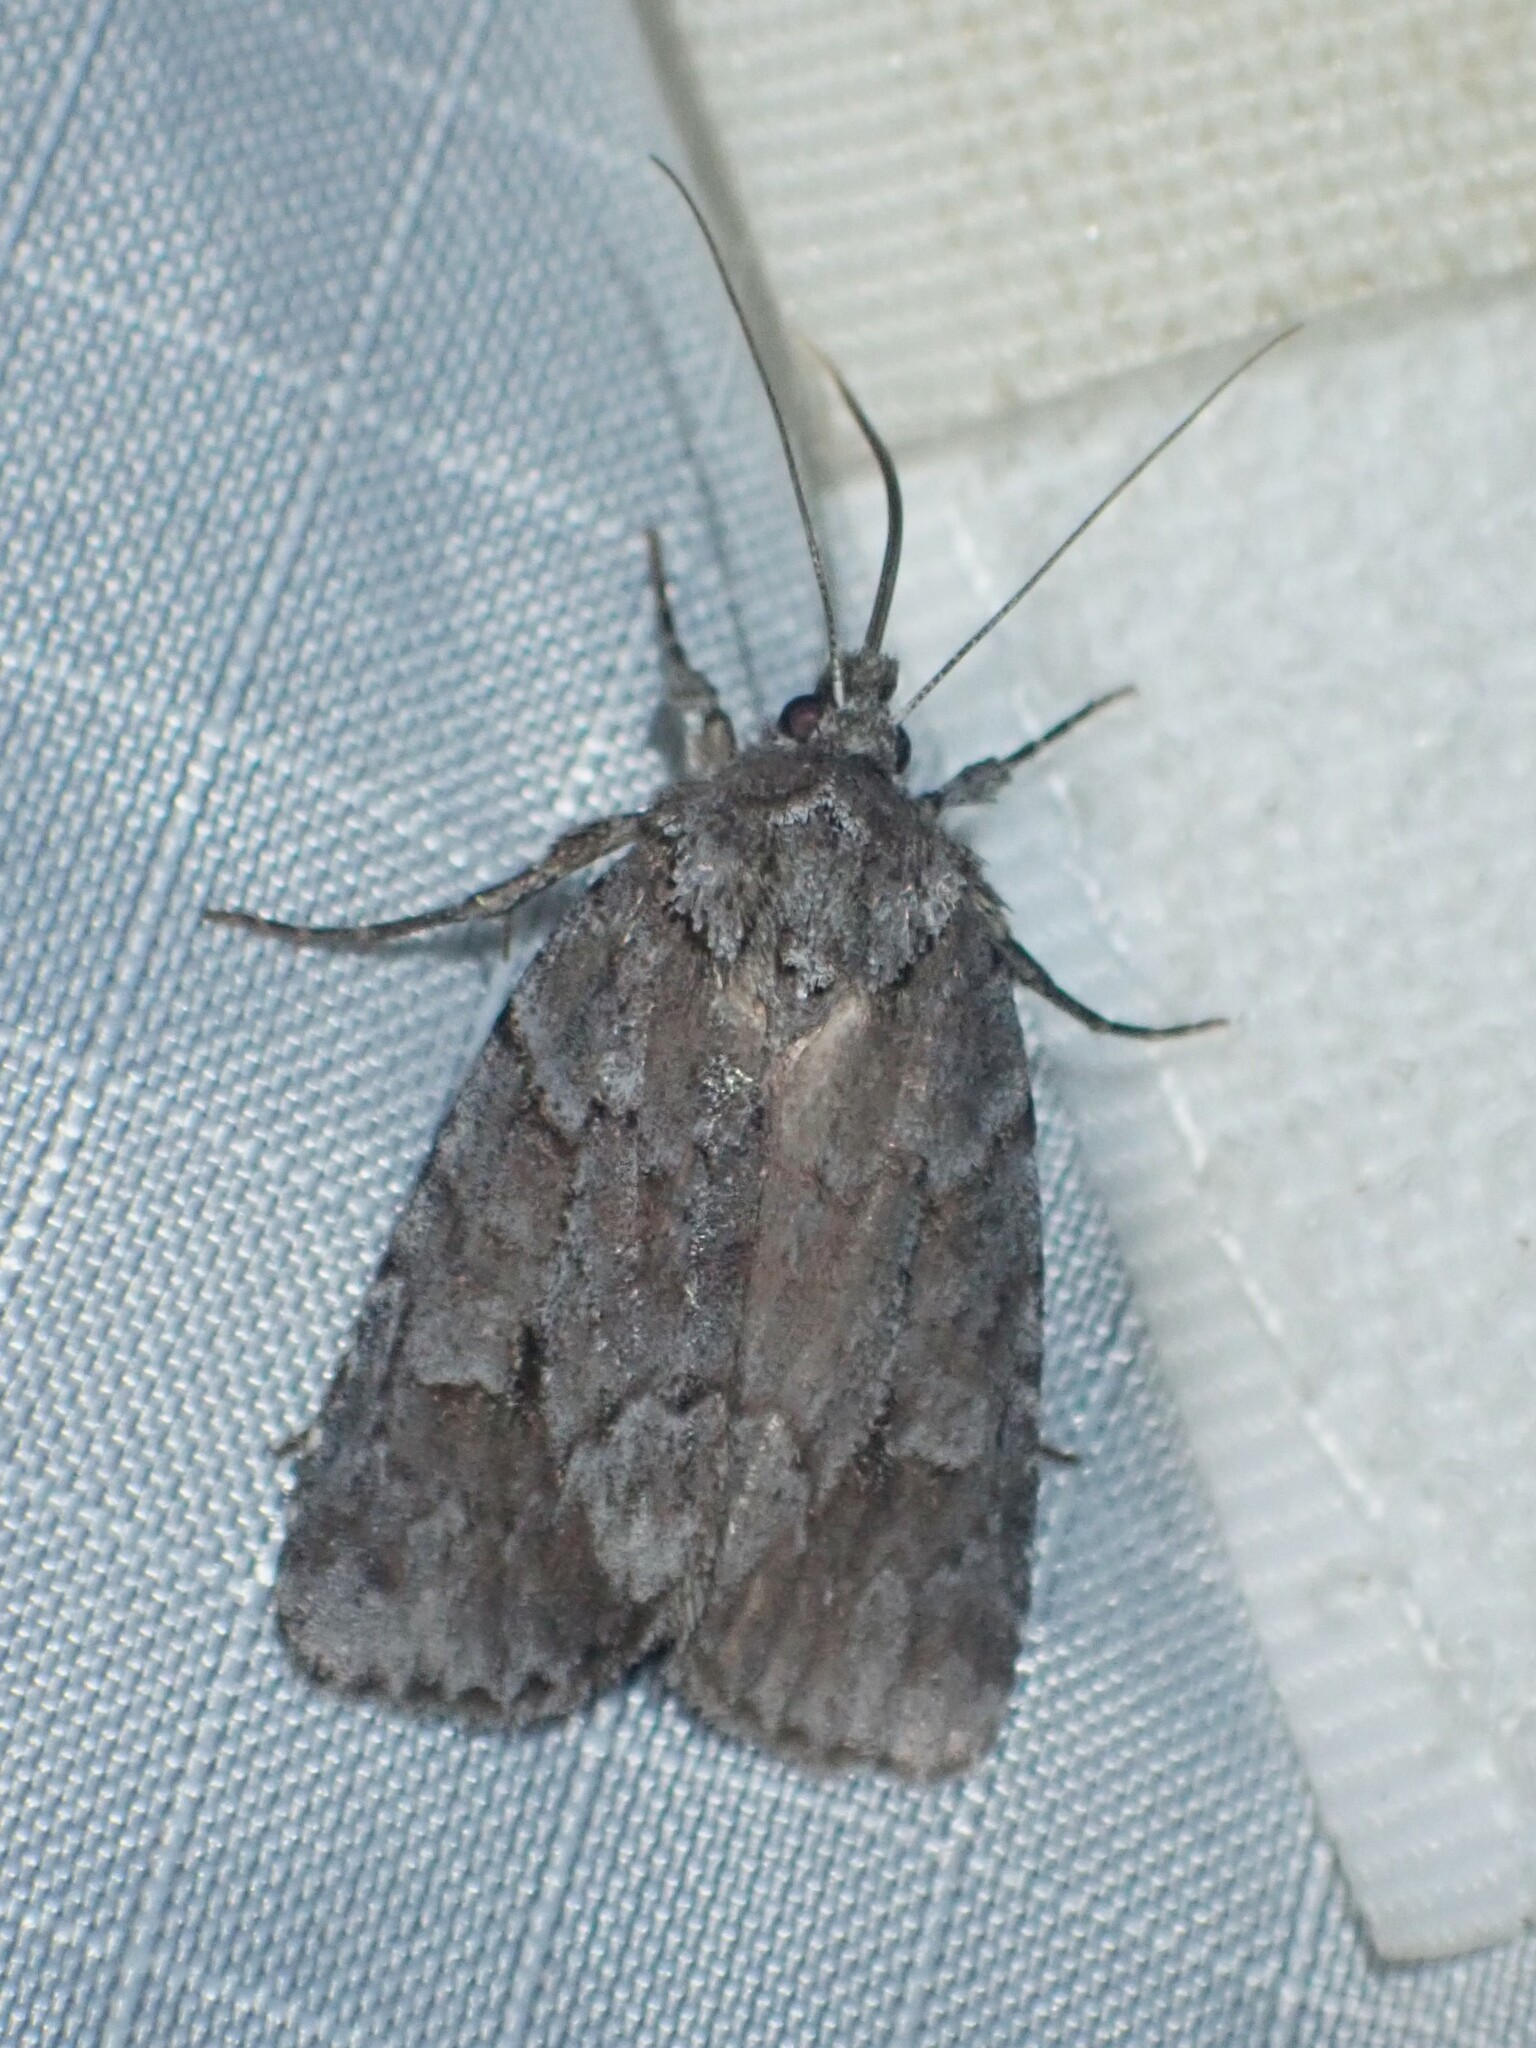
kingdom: Animalia
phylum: Arthropoda
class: Insecta
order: Lepidoptera
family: Noctuidae
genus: Sympistis
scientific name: Sympistis dentata
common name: Blueberry sallow
